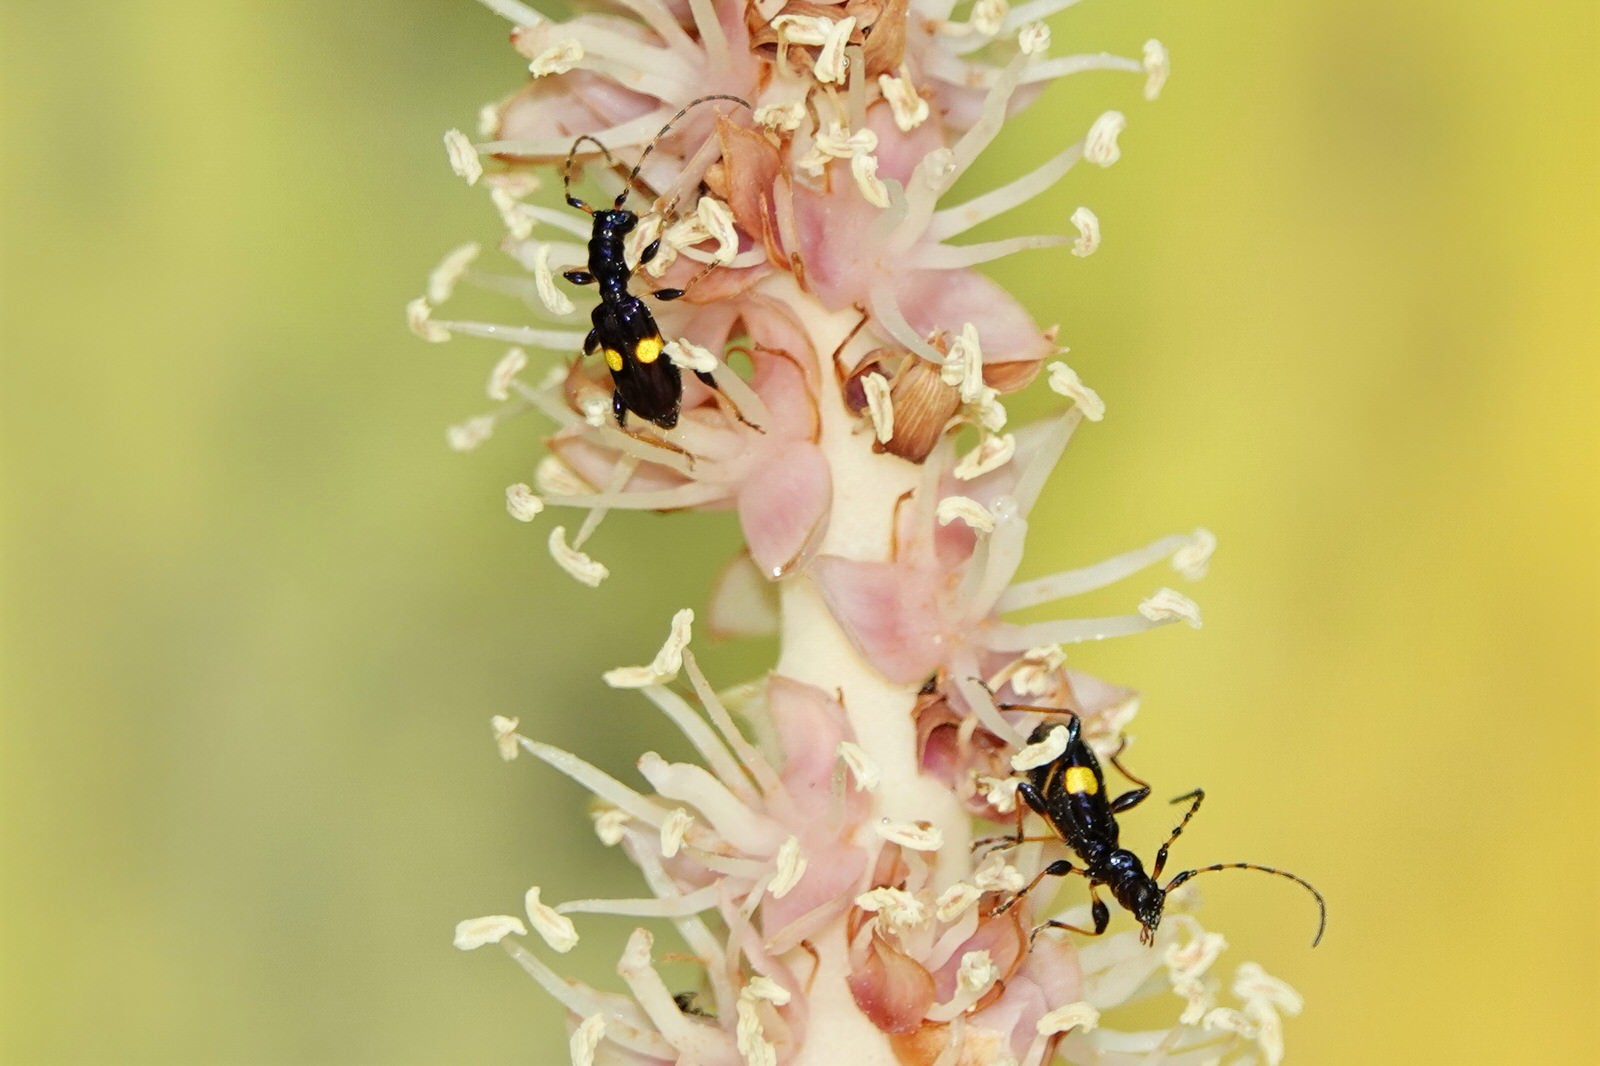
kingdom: Animalia
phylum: Arthropoda
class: Insecta
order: Coleoptera
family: Cerambycidae
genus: Zorion
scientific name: Zorion guttigerum
